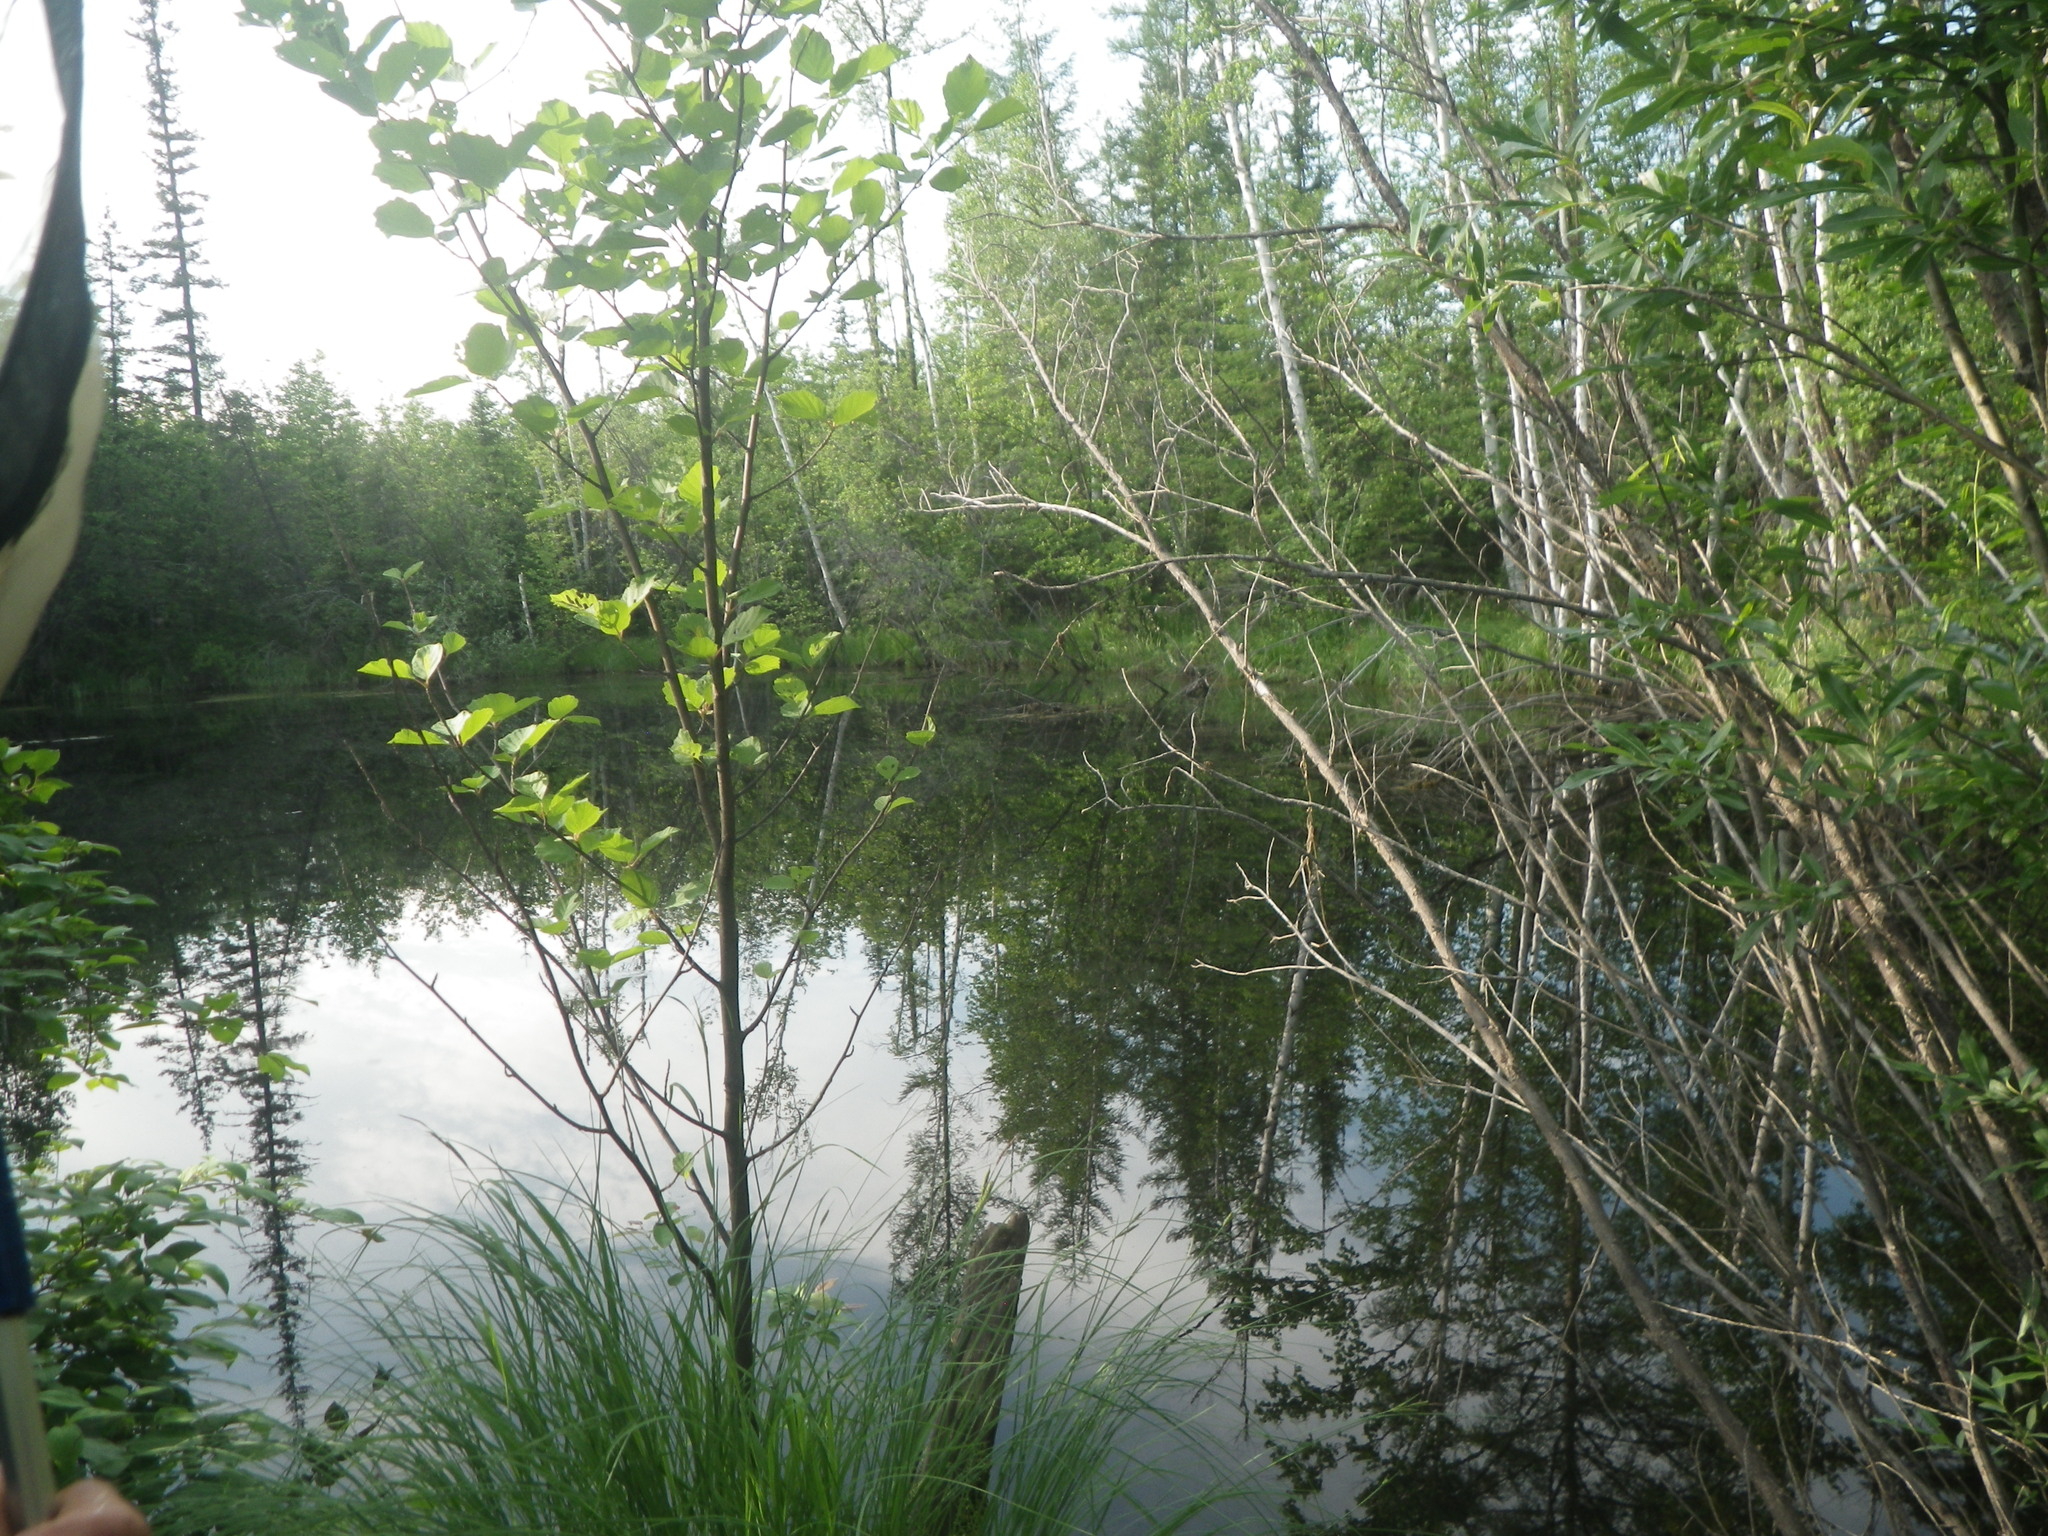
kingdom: Plantae
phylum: Tracheophyta
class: Magnoliopsida
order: Rosales
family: Rosaceae
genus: Prunus
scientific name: Prunus padus
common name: Bird cherry
